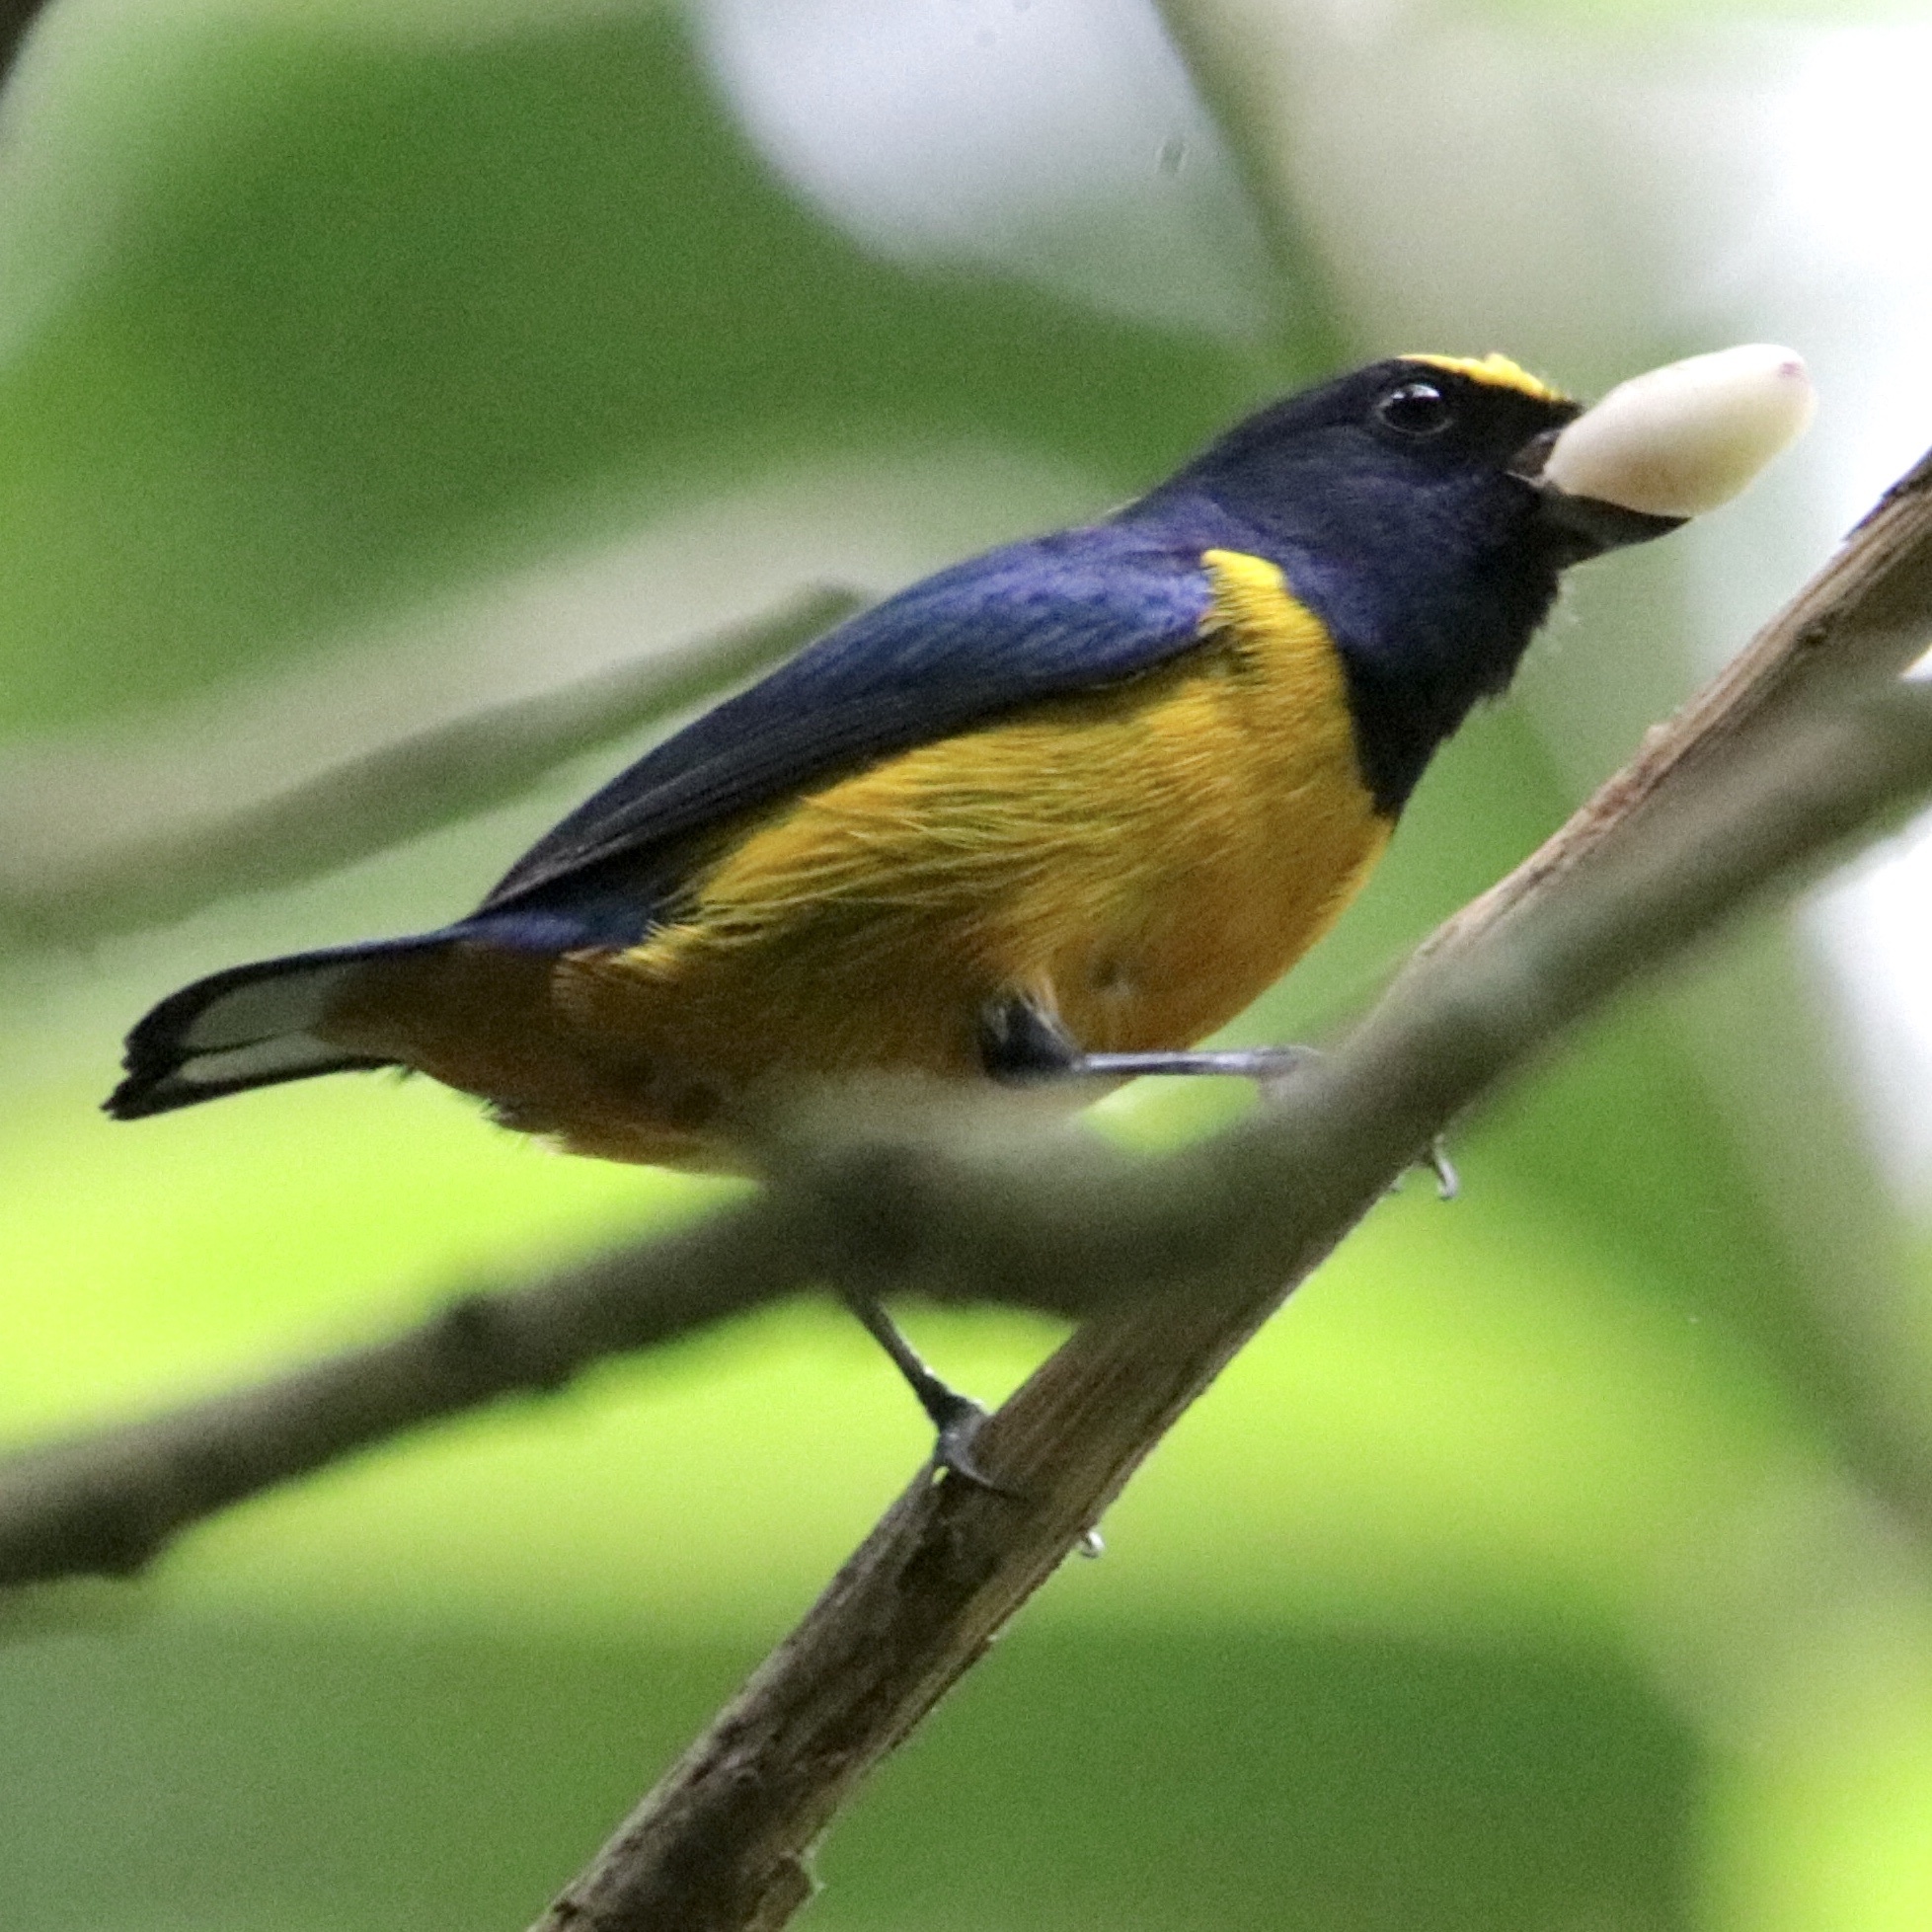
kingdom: Animalia
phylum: Chordata
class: Aves
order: Passeriformes
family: Fringillidae
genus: Euphonia
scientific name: Euphonia fulvicrissa
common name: Fulvous-vented euphonia
